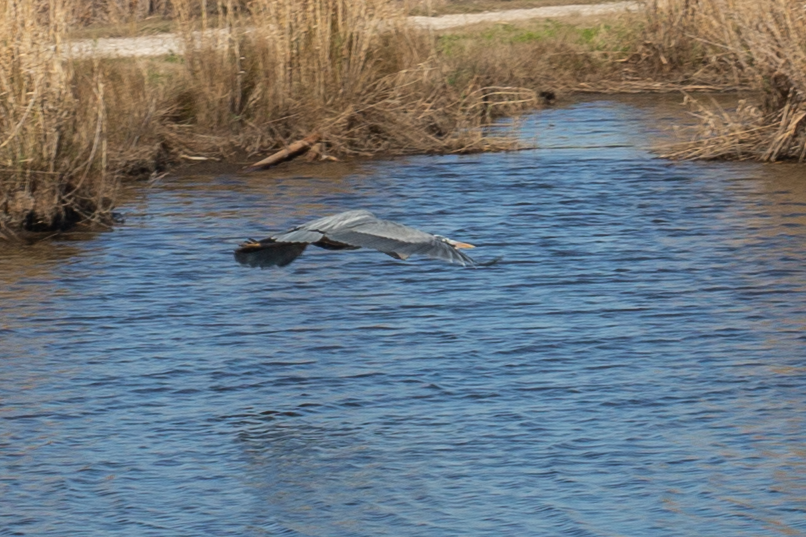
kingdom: Animalia
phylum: Chordata
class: Aves
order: Pelecaniformes
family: Ardeidae
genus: Ardea
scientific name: Ardea herodias
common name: Great blue heron
